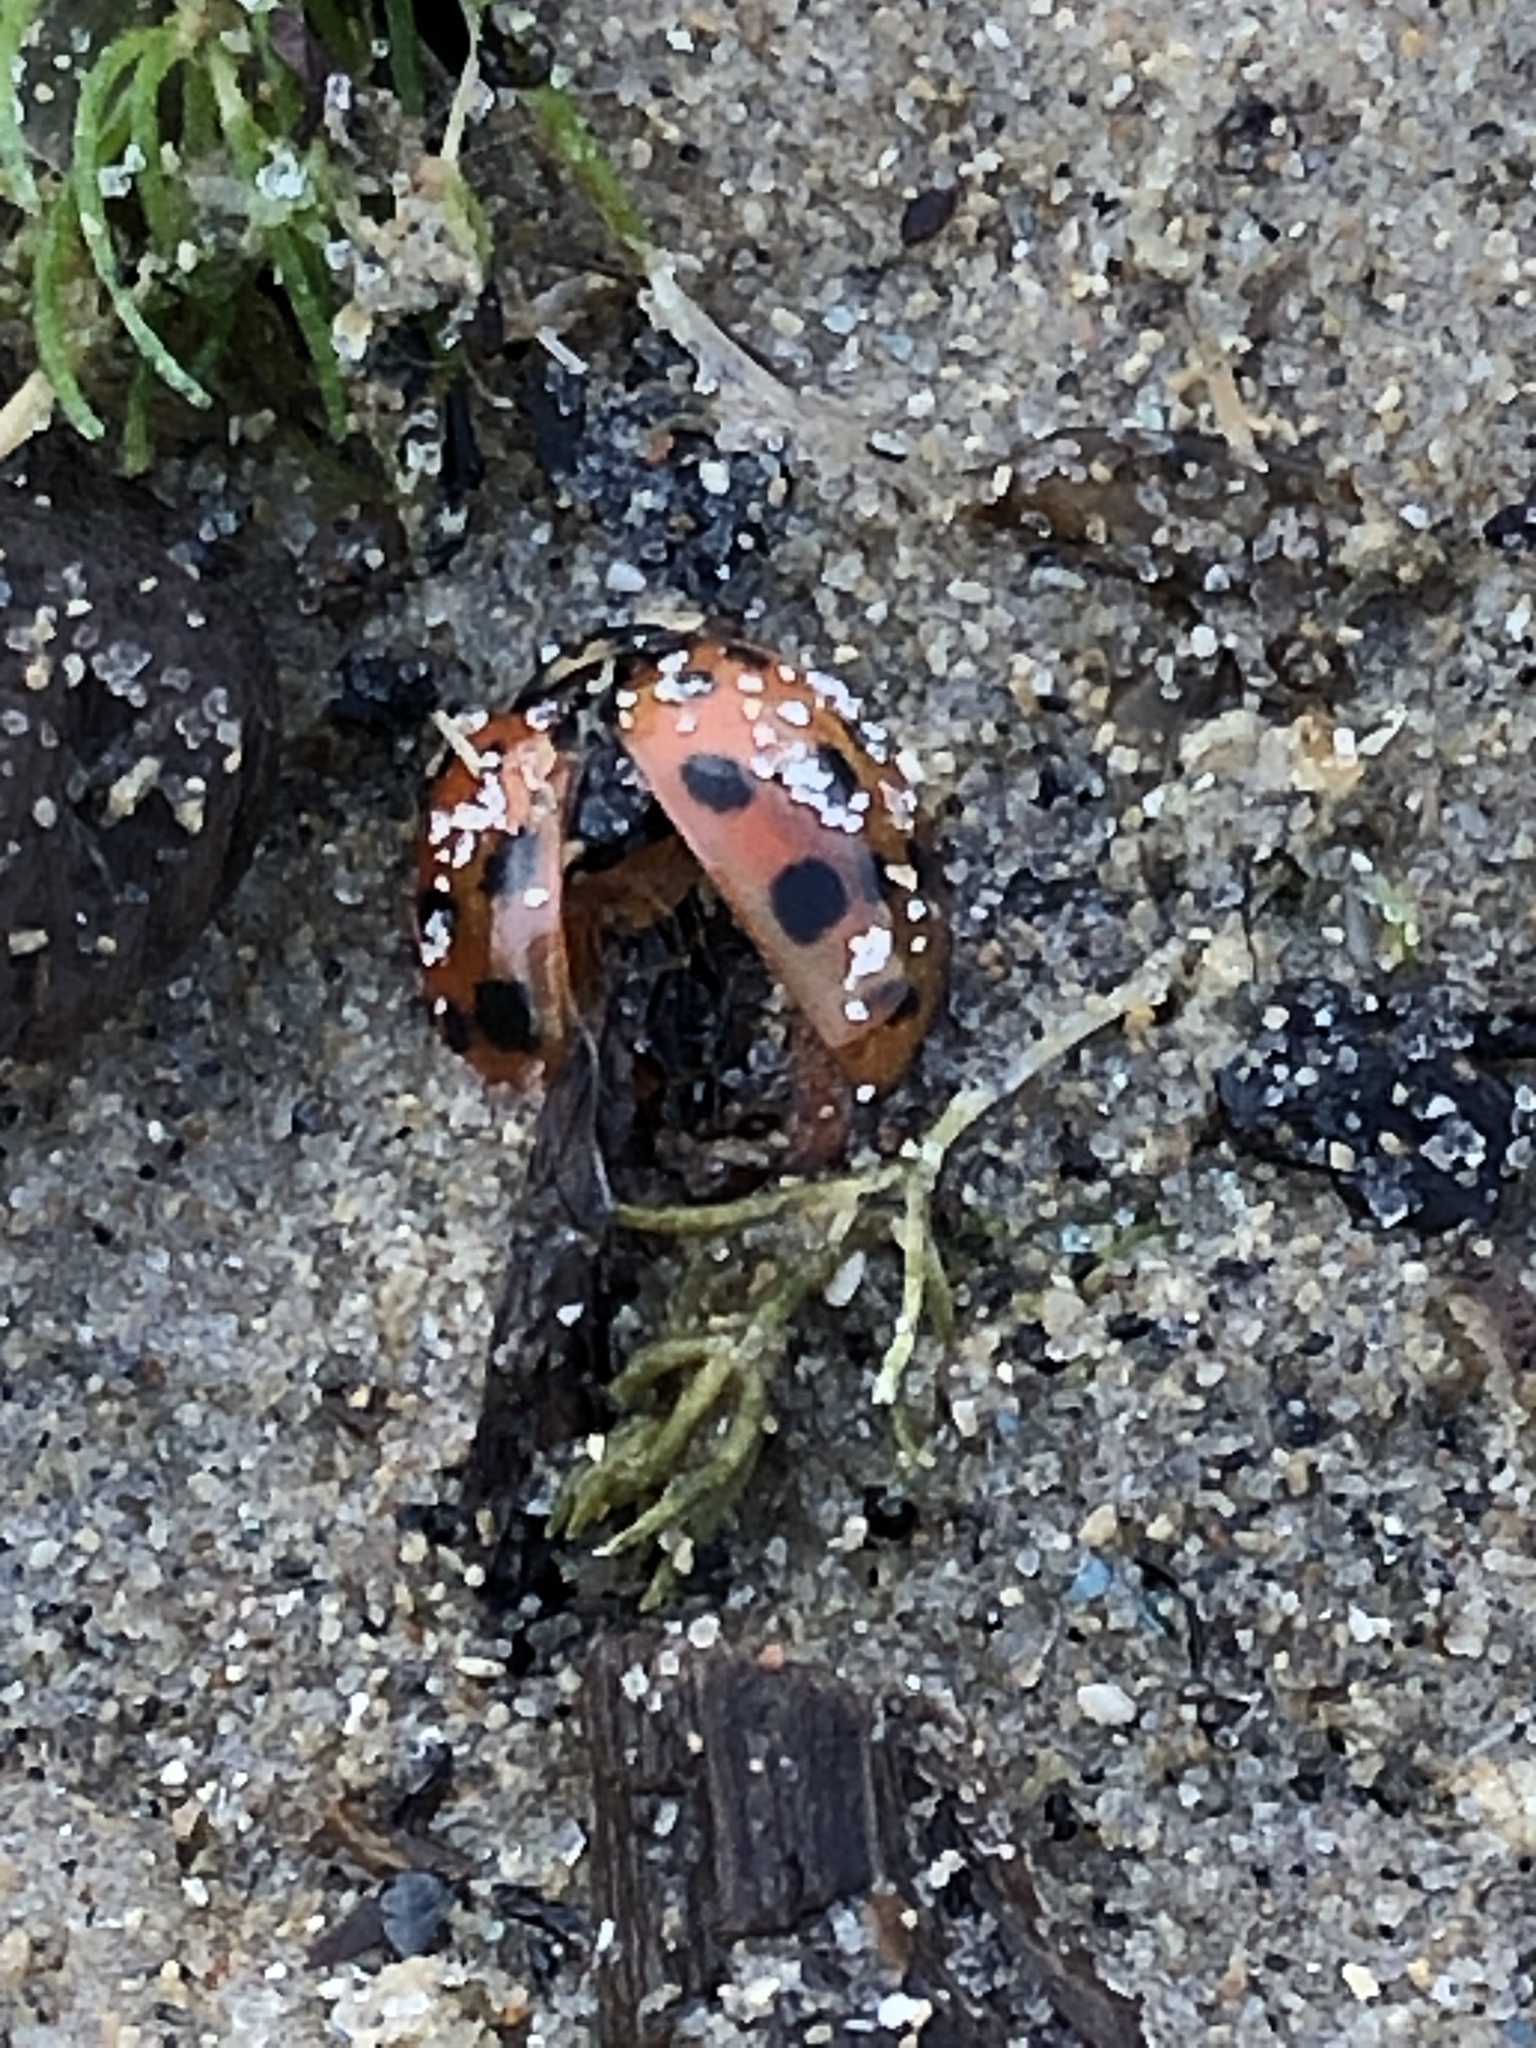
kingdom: Animalia
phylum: Arthropoda
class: Insecta
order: Coleoptera
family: Coccinellidae
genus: Harmonia
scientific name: Harmonia axyridis
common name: Harlequin ladybird
